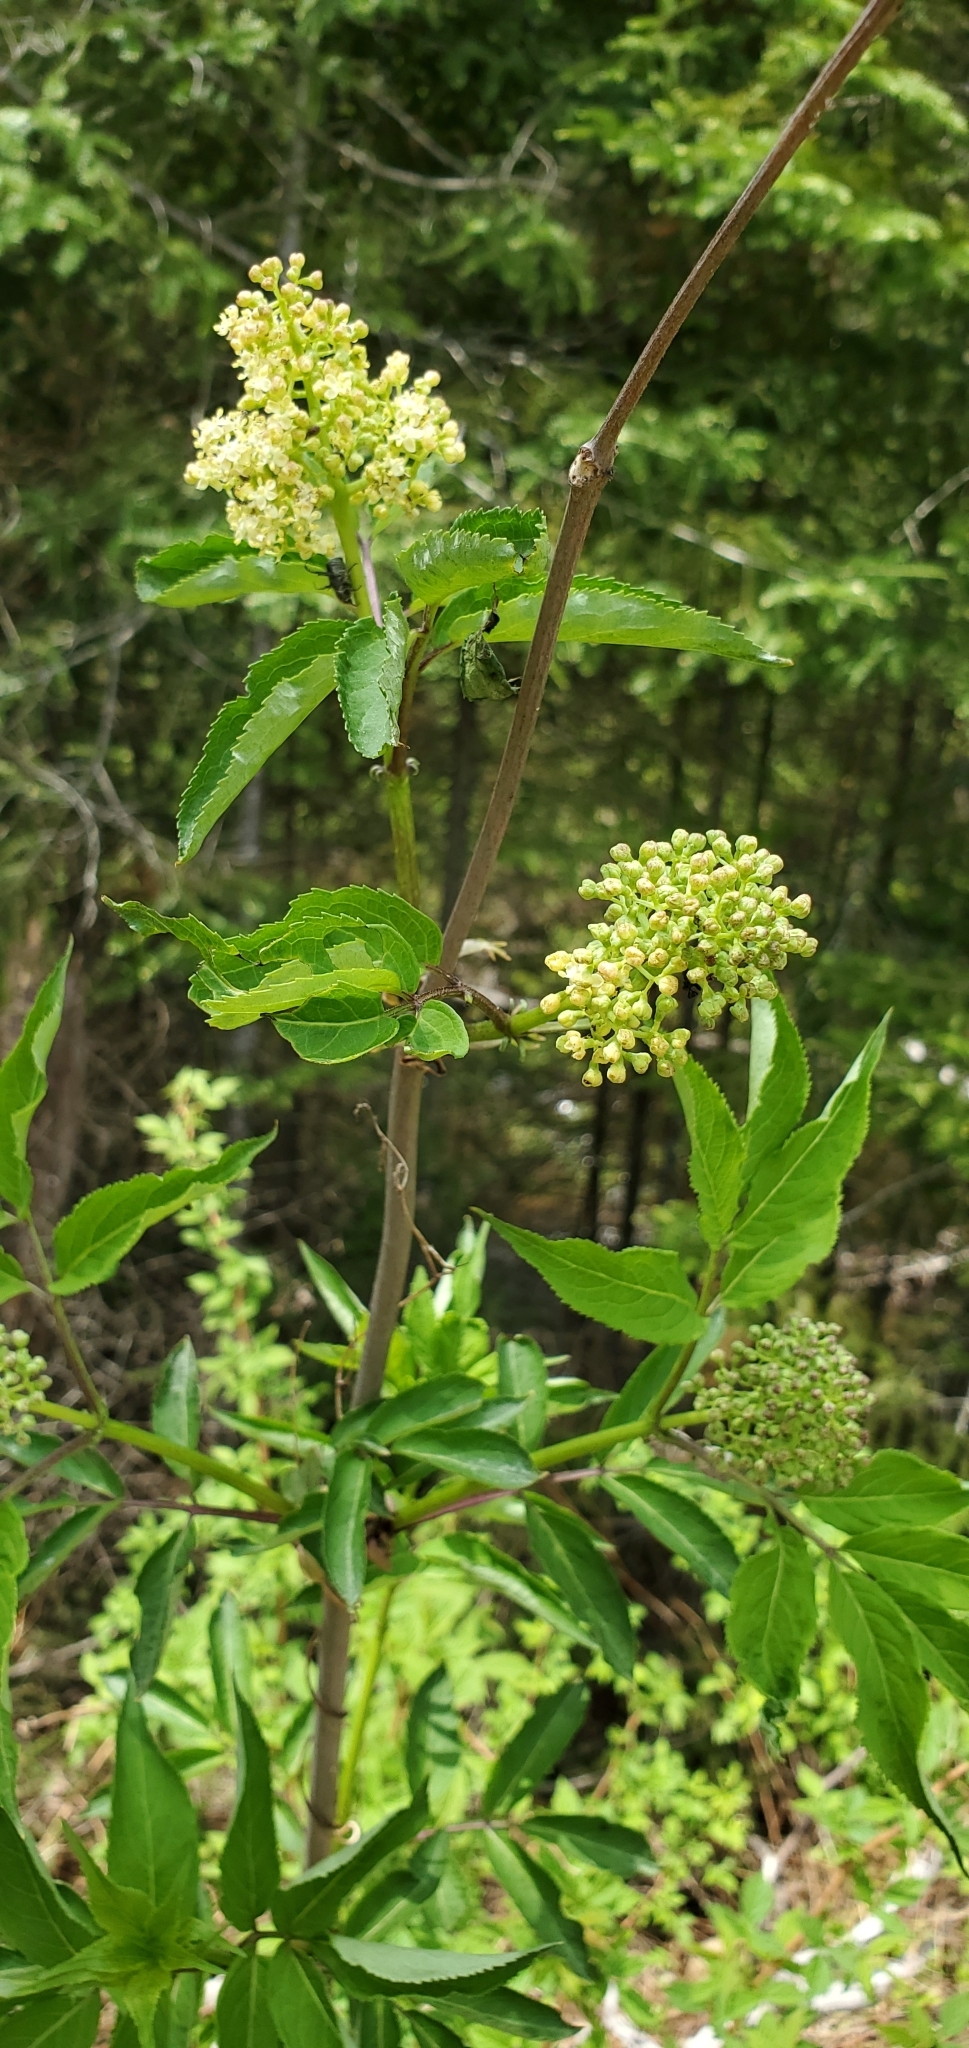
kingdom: Plantae
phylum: Tracheophyta
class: Magnoliopsida
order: Dipsacales
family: Viburnaceae
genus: Sambucus
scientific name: Sambucus racemosa
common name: Red-berried elder
